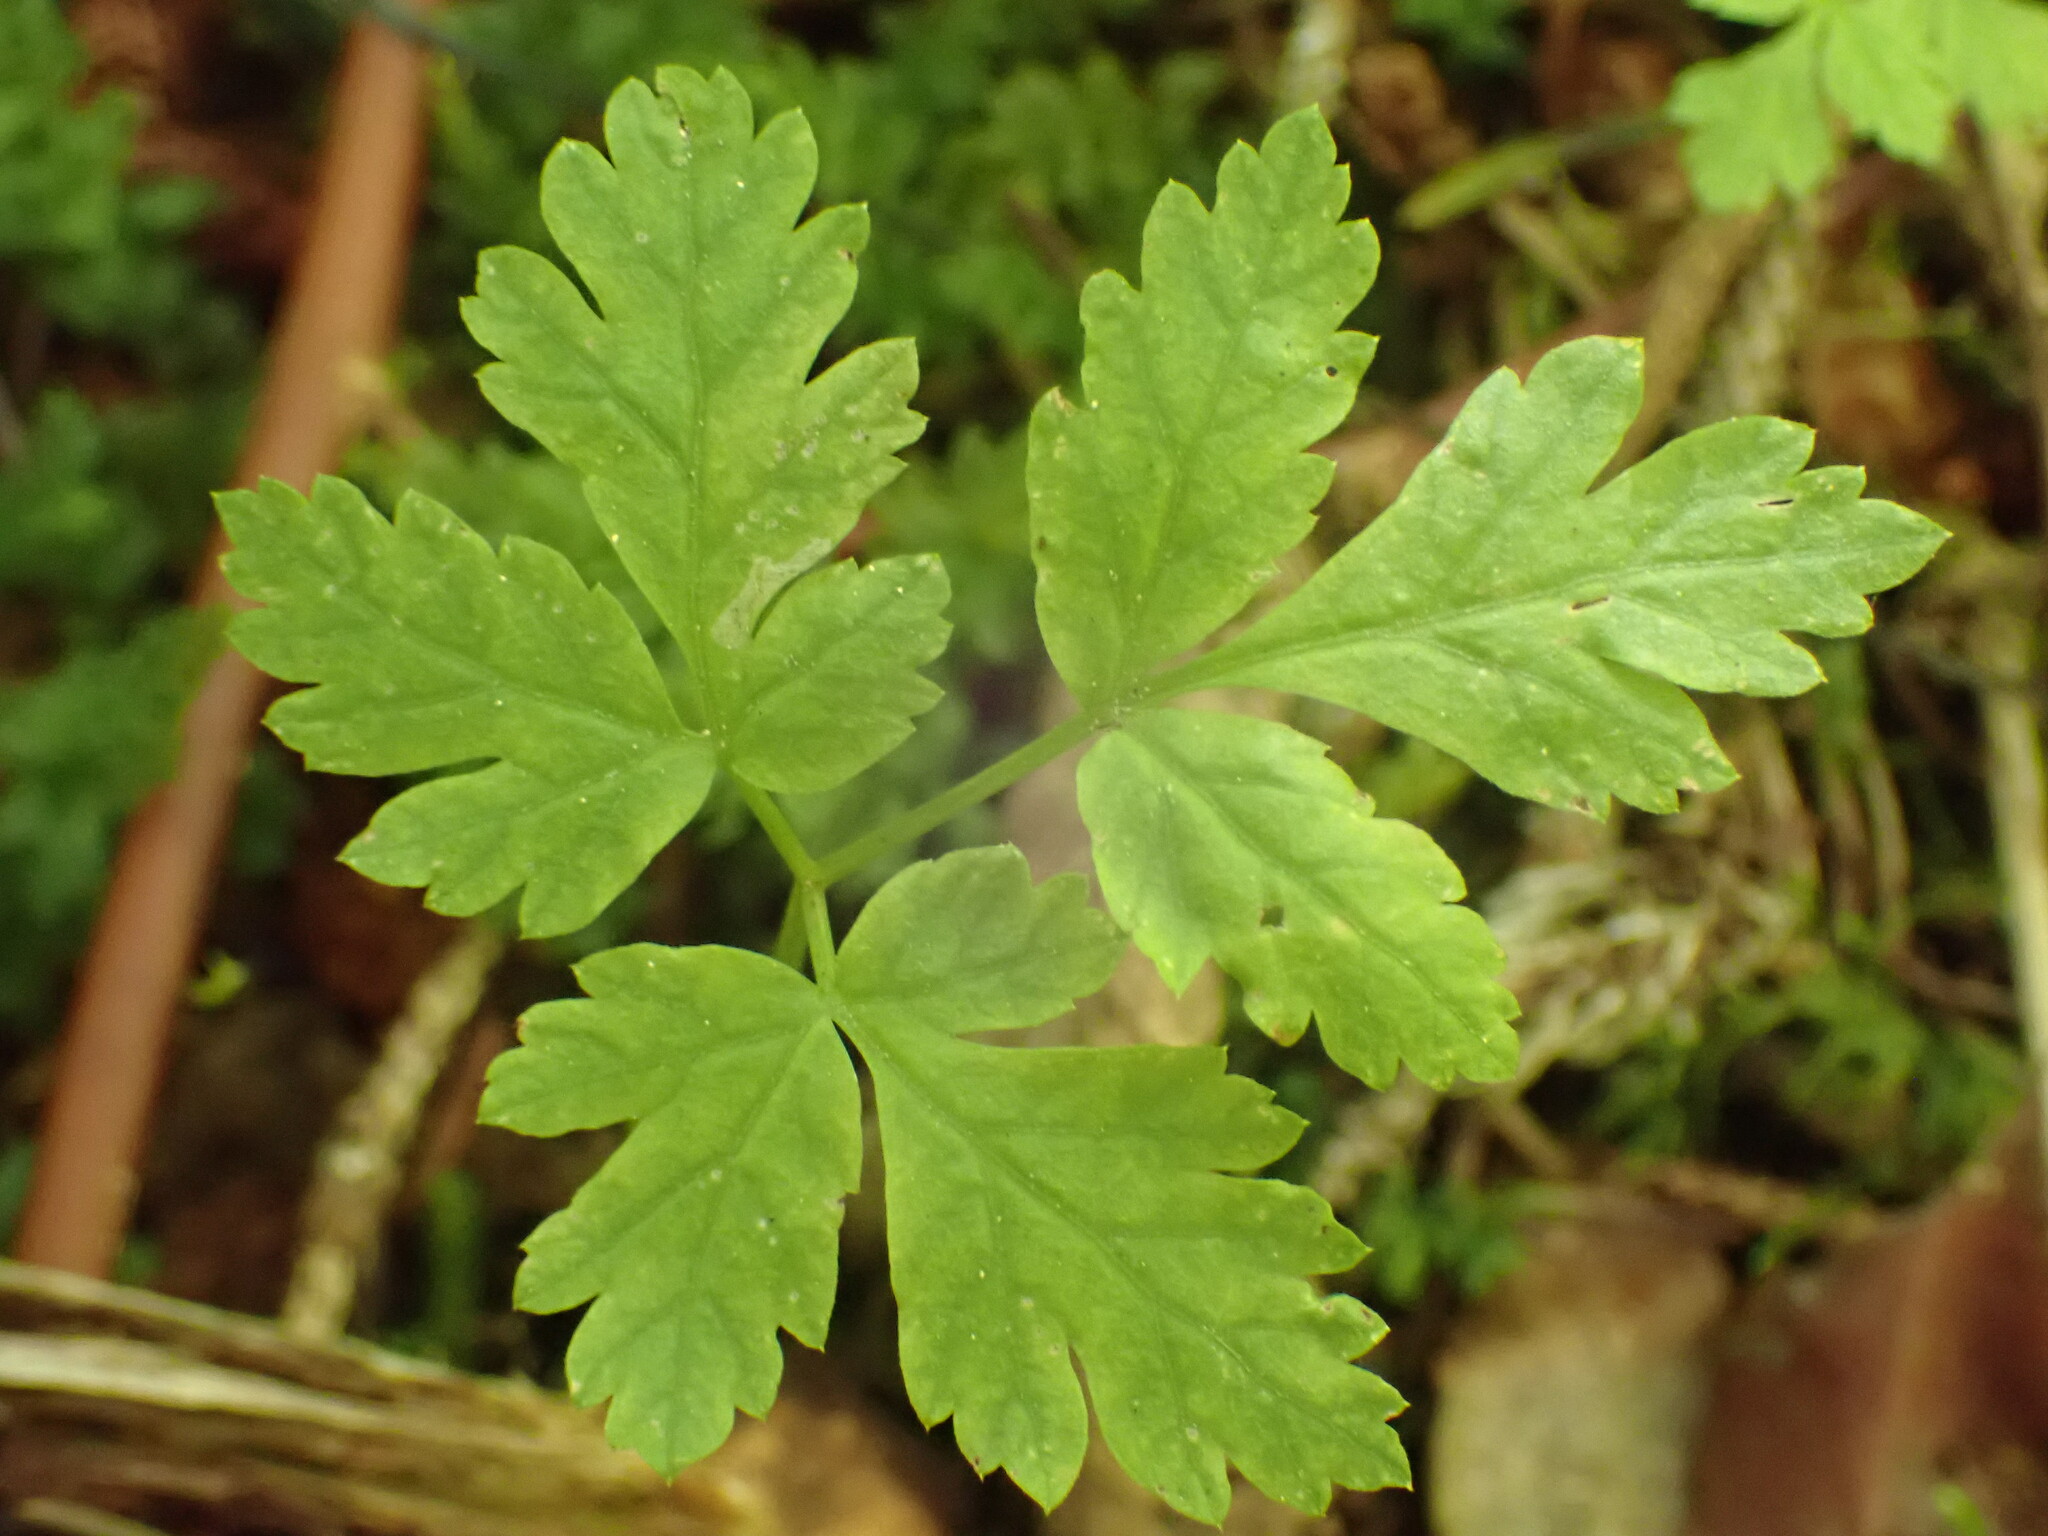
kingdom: Plantae
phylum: Tracheophyta
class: Magnoliopsida
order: Apiales
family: Apiaceae
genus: Osmorhiza
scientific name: Osmorhiza berteroi
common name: Mountain sweet cicely
